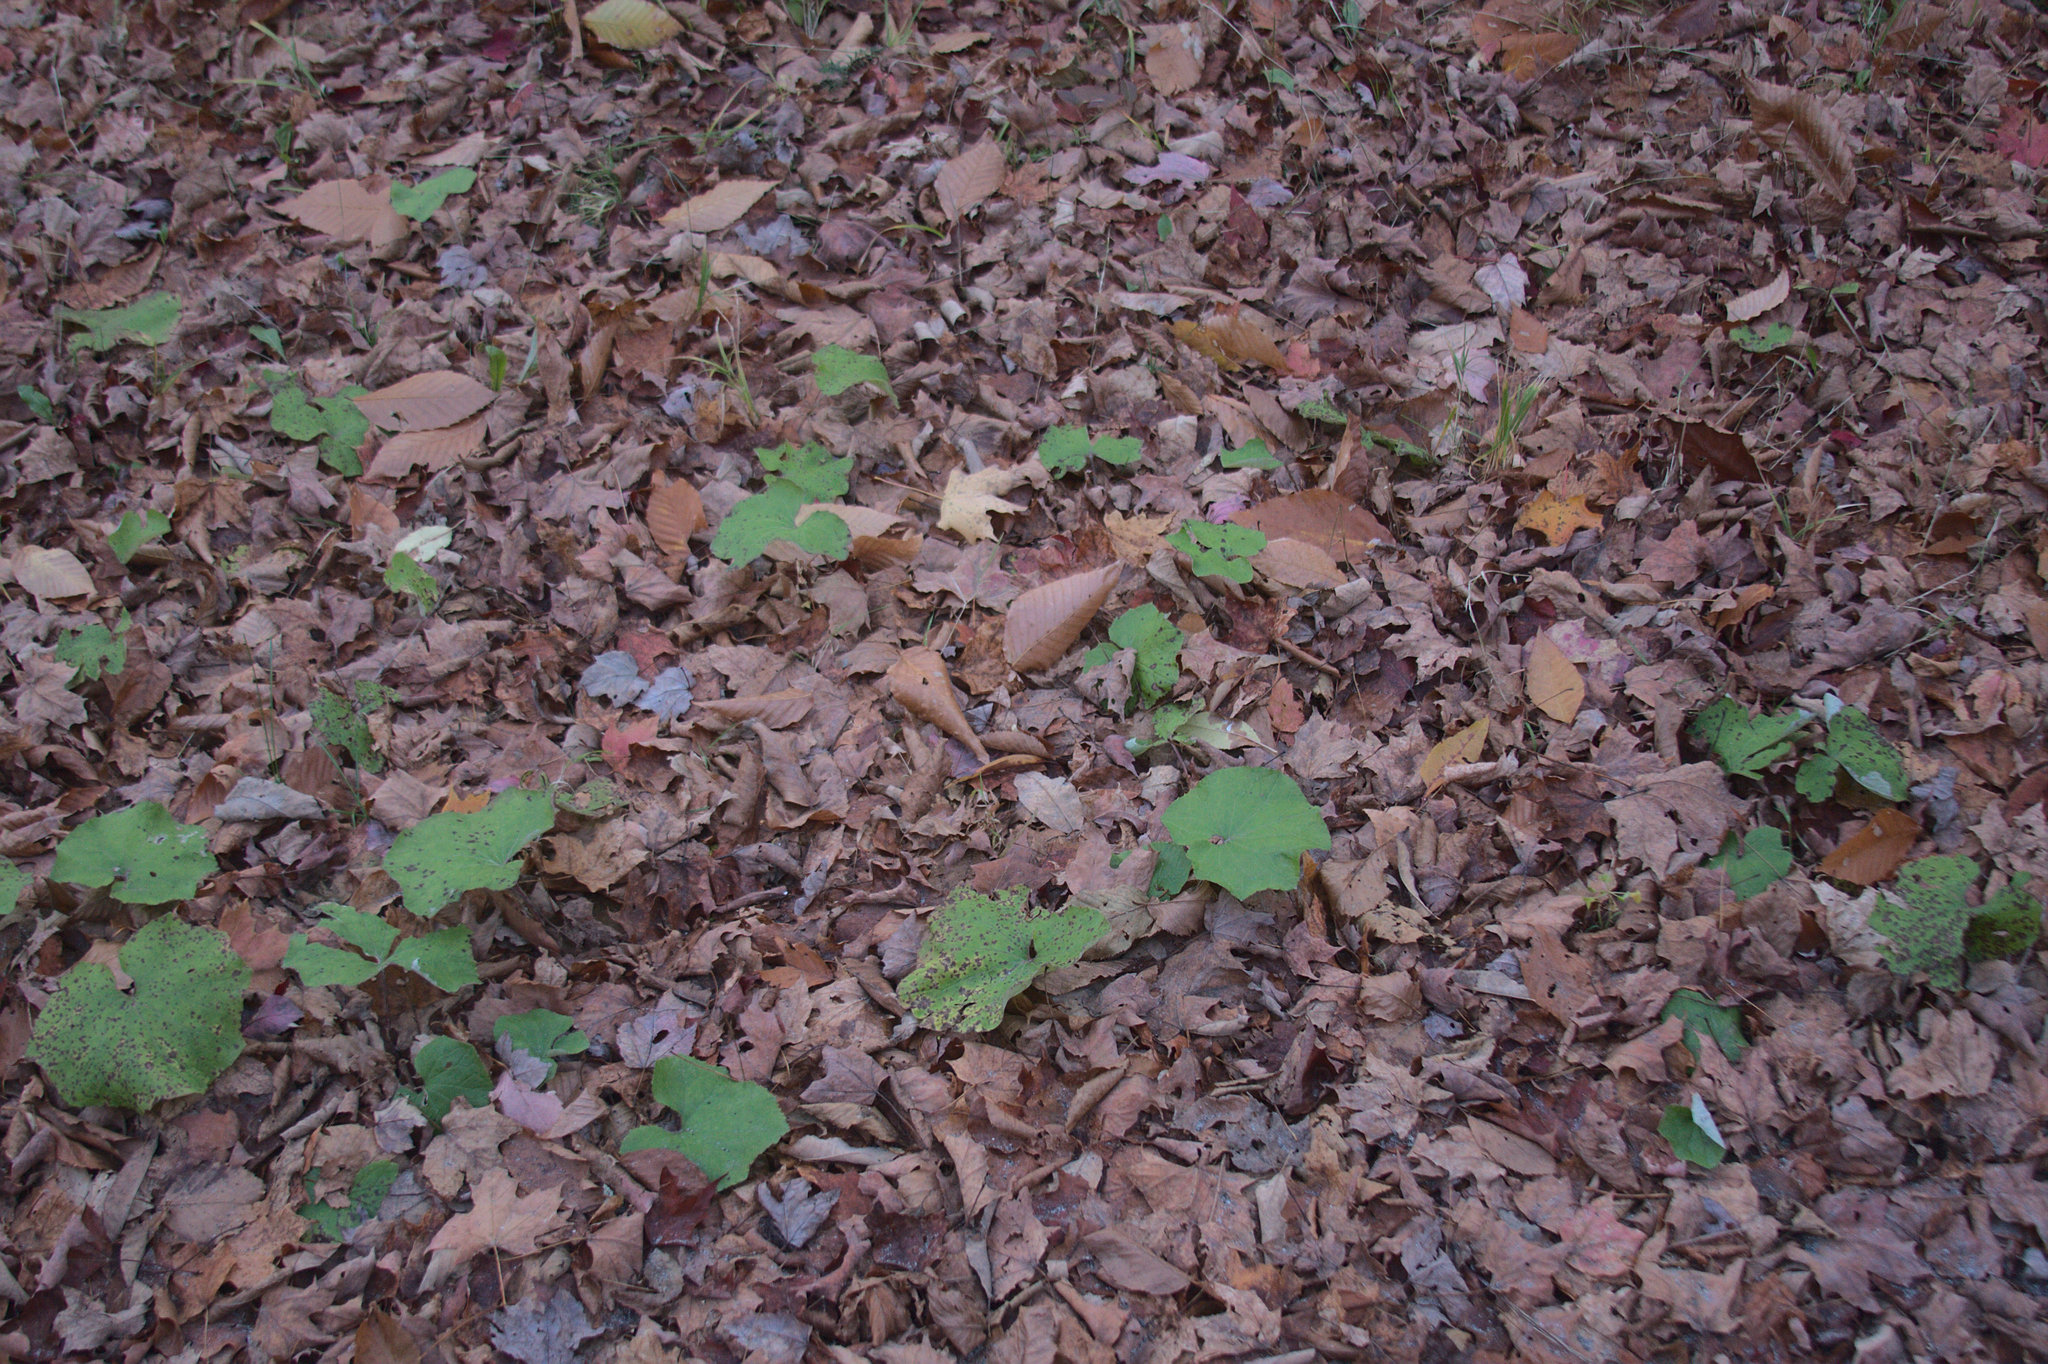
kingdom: Plantae
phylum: Tracheophyta
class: Magnoliopsida
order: Asterales
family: Asteraceae
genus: Tussilago
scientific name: Tussilago farfara
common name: Coltsfoot
